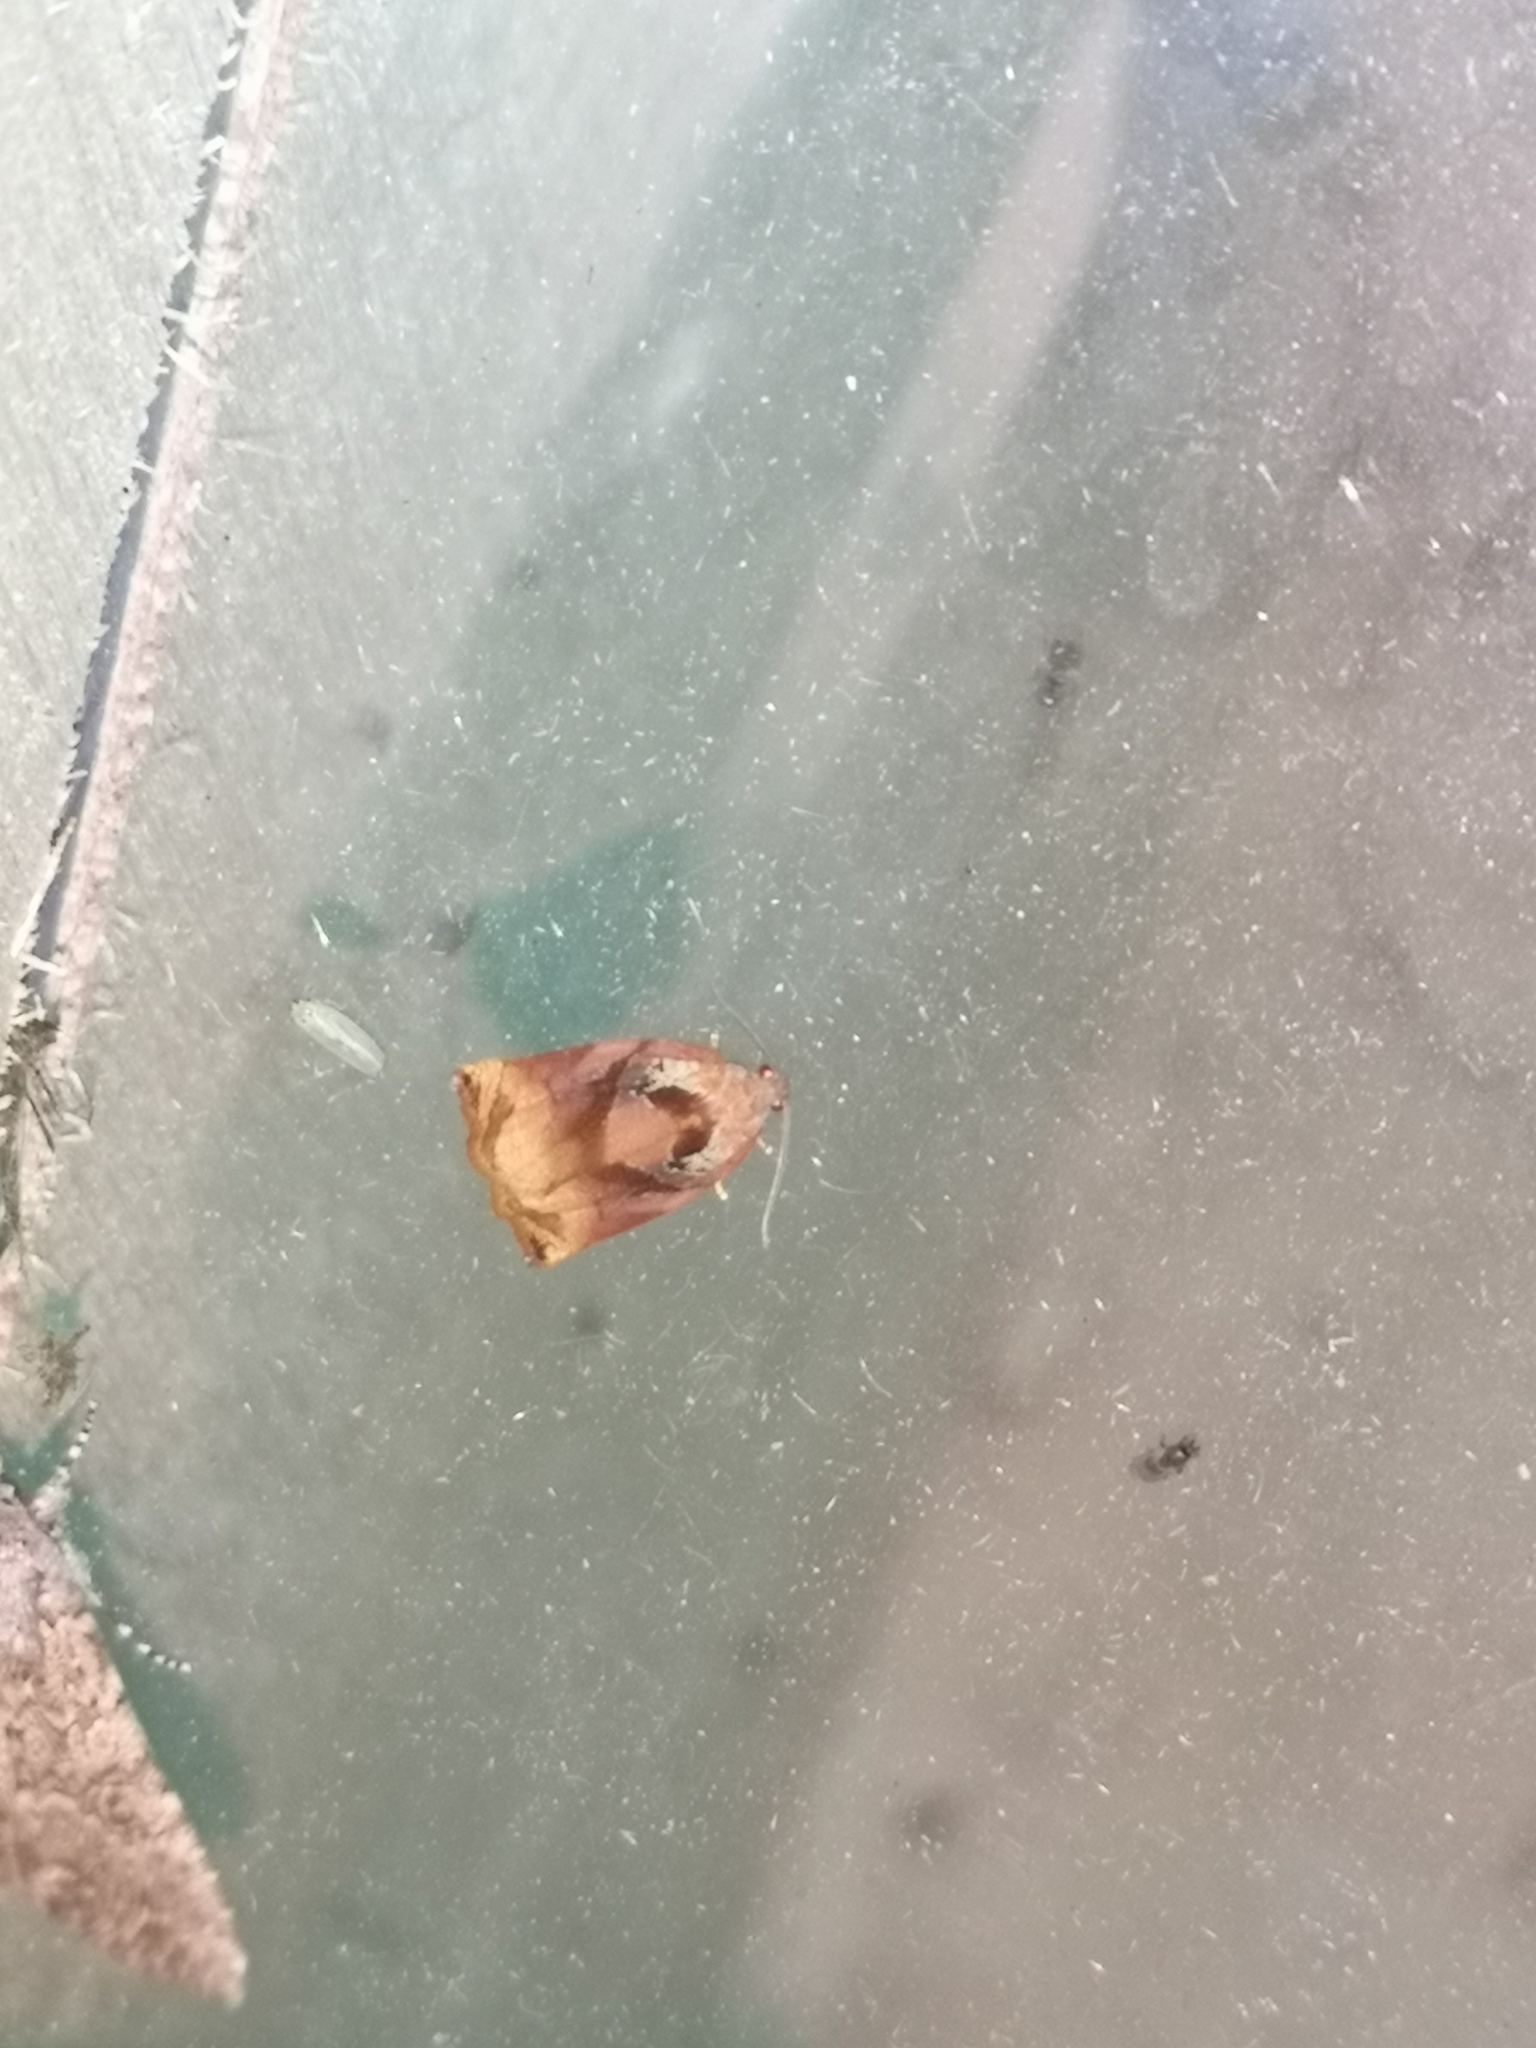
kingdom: Animalia
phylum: Arthropoda
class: Insecta
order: Lepidoptera
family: Tortricidae
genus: Archips
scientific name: Archips podana
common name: Large fruit-tree tortrix
